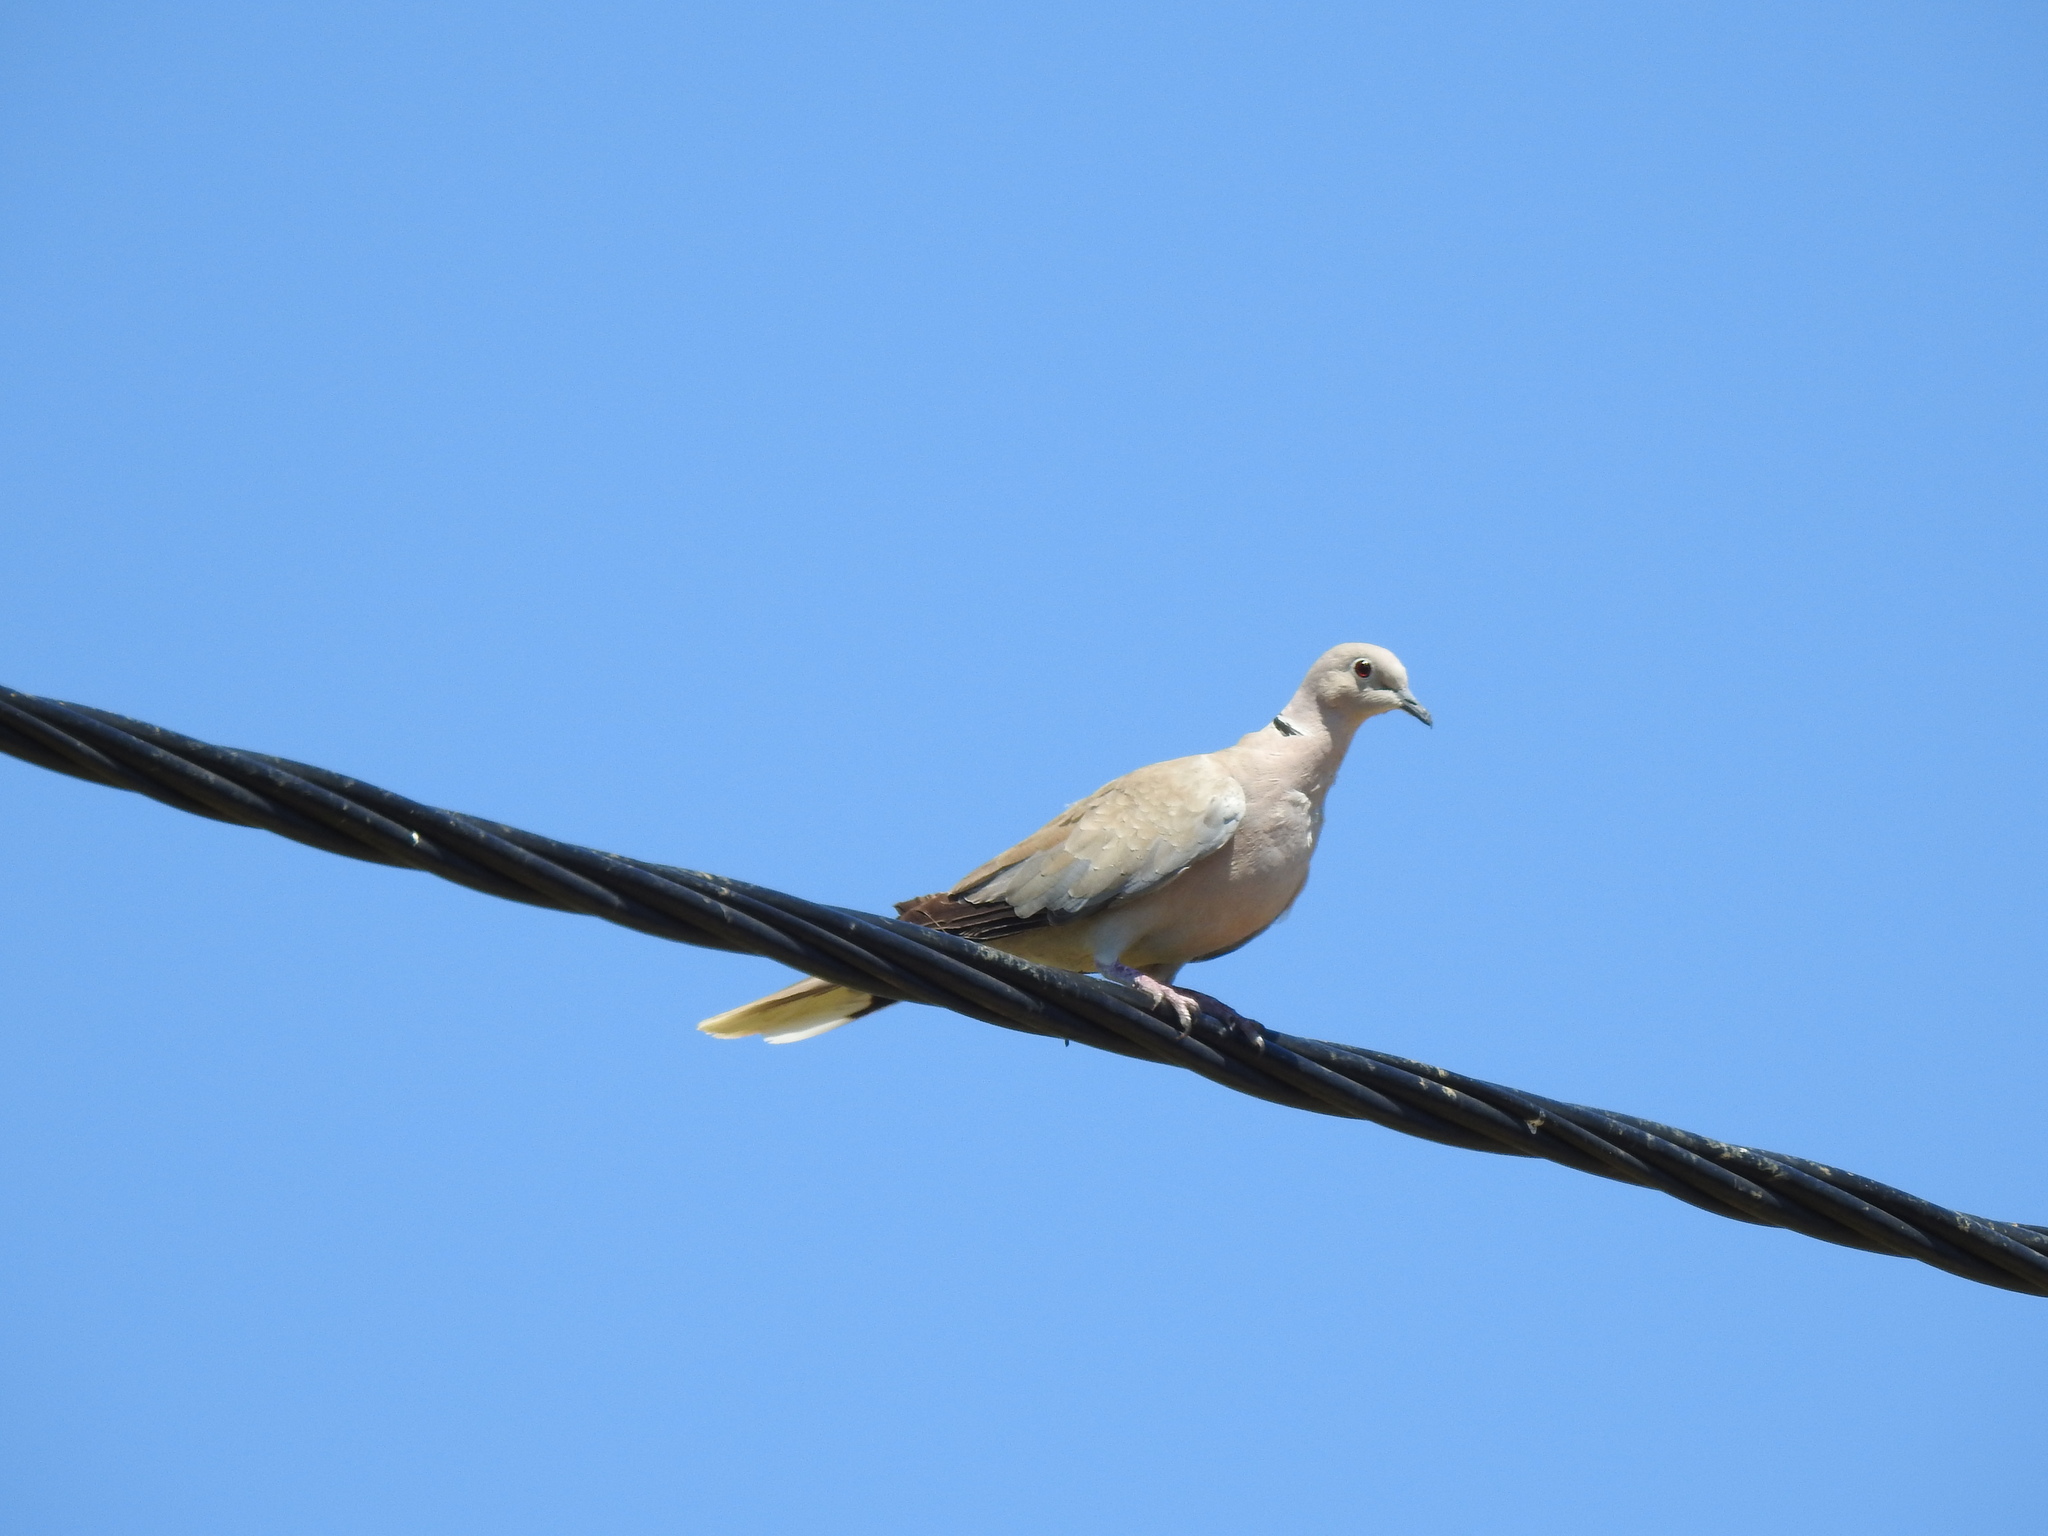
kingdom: Animalia
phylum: Chordata
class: Aves
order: Columbiformes
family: Columbidae
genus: Streptopelia
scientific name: Streptopelia decaocto
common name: Eurasian collared dove
